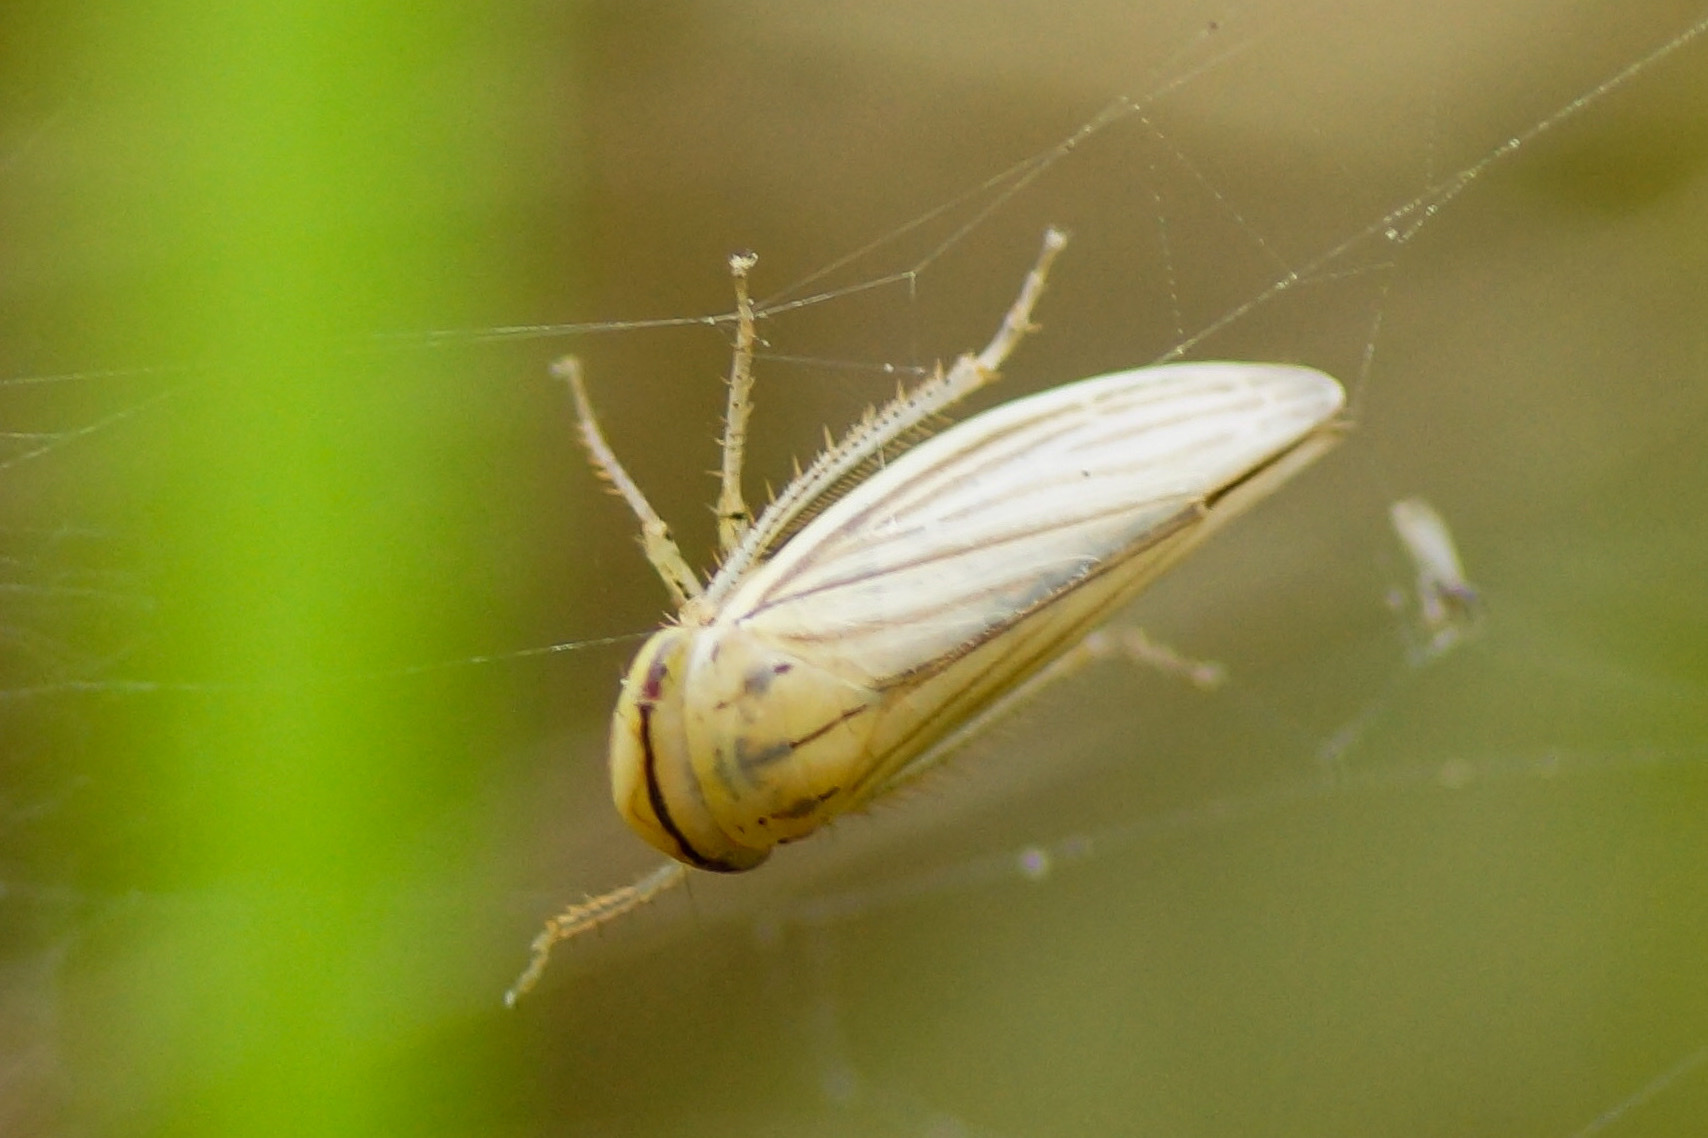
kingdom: Animalia
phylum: Arthropoda
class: Insecta
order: Hemiptera
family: Cicadellidae
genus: Athysanus
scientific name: Athysanus argentarius
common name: Silver leafhopper
